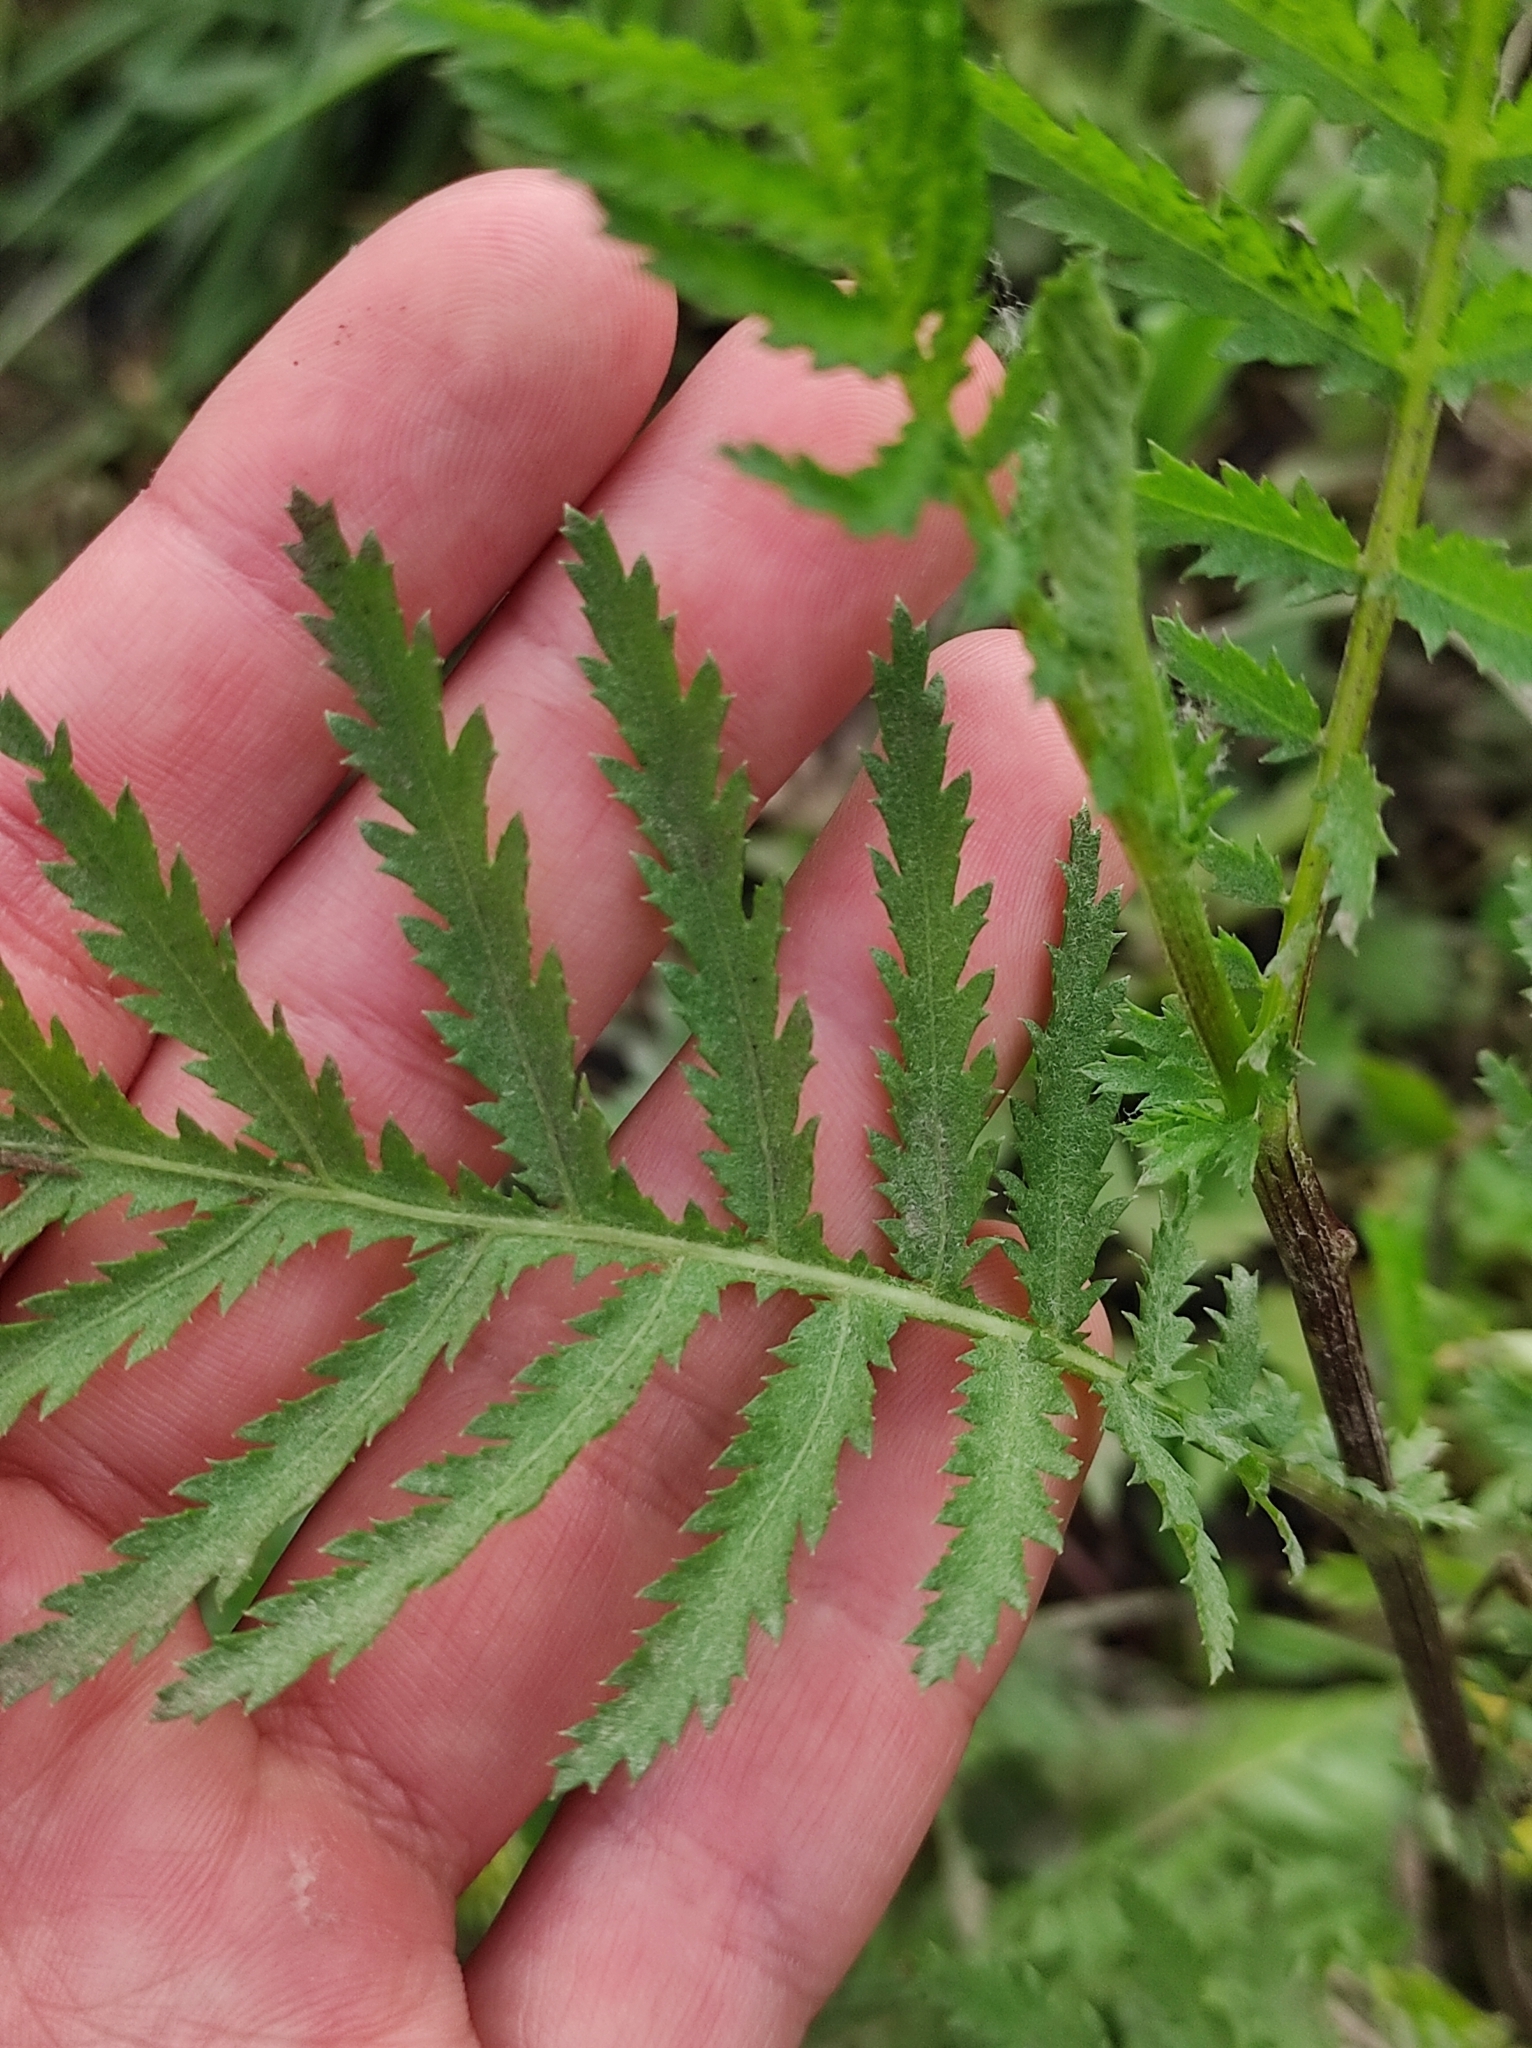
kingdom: Plantae
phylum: Tracheophyta
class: Magnoliopsida
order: Asterales
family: Asteraceae
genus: Tanacetum
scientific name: Tanacetum vulgare
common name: Common tansy
